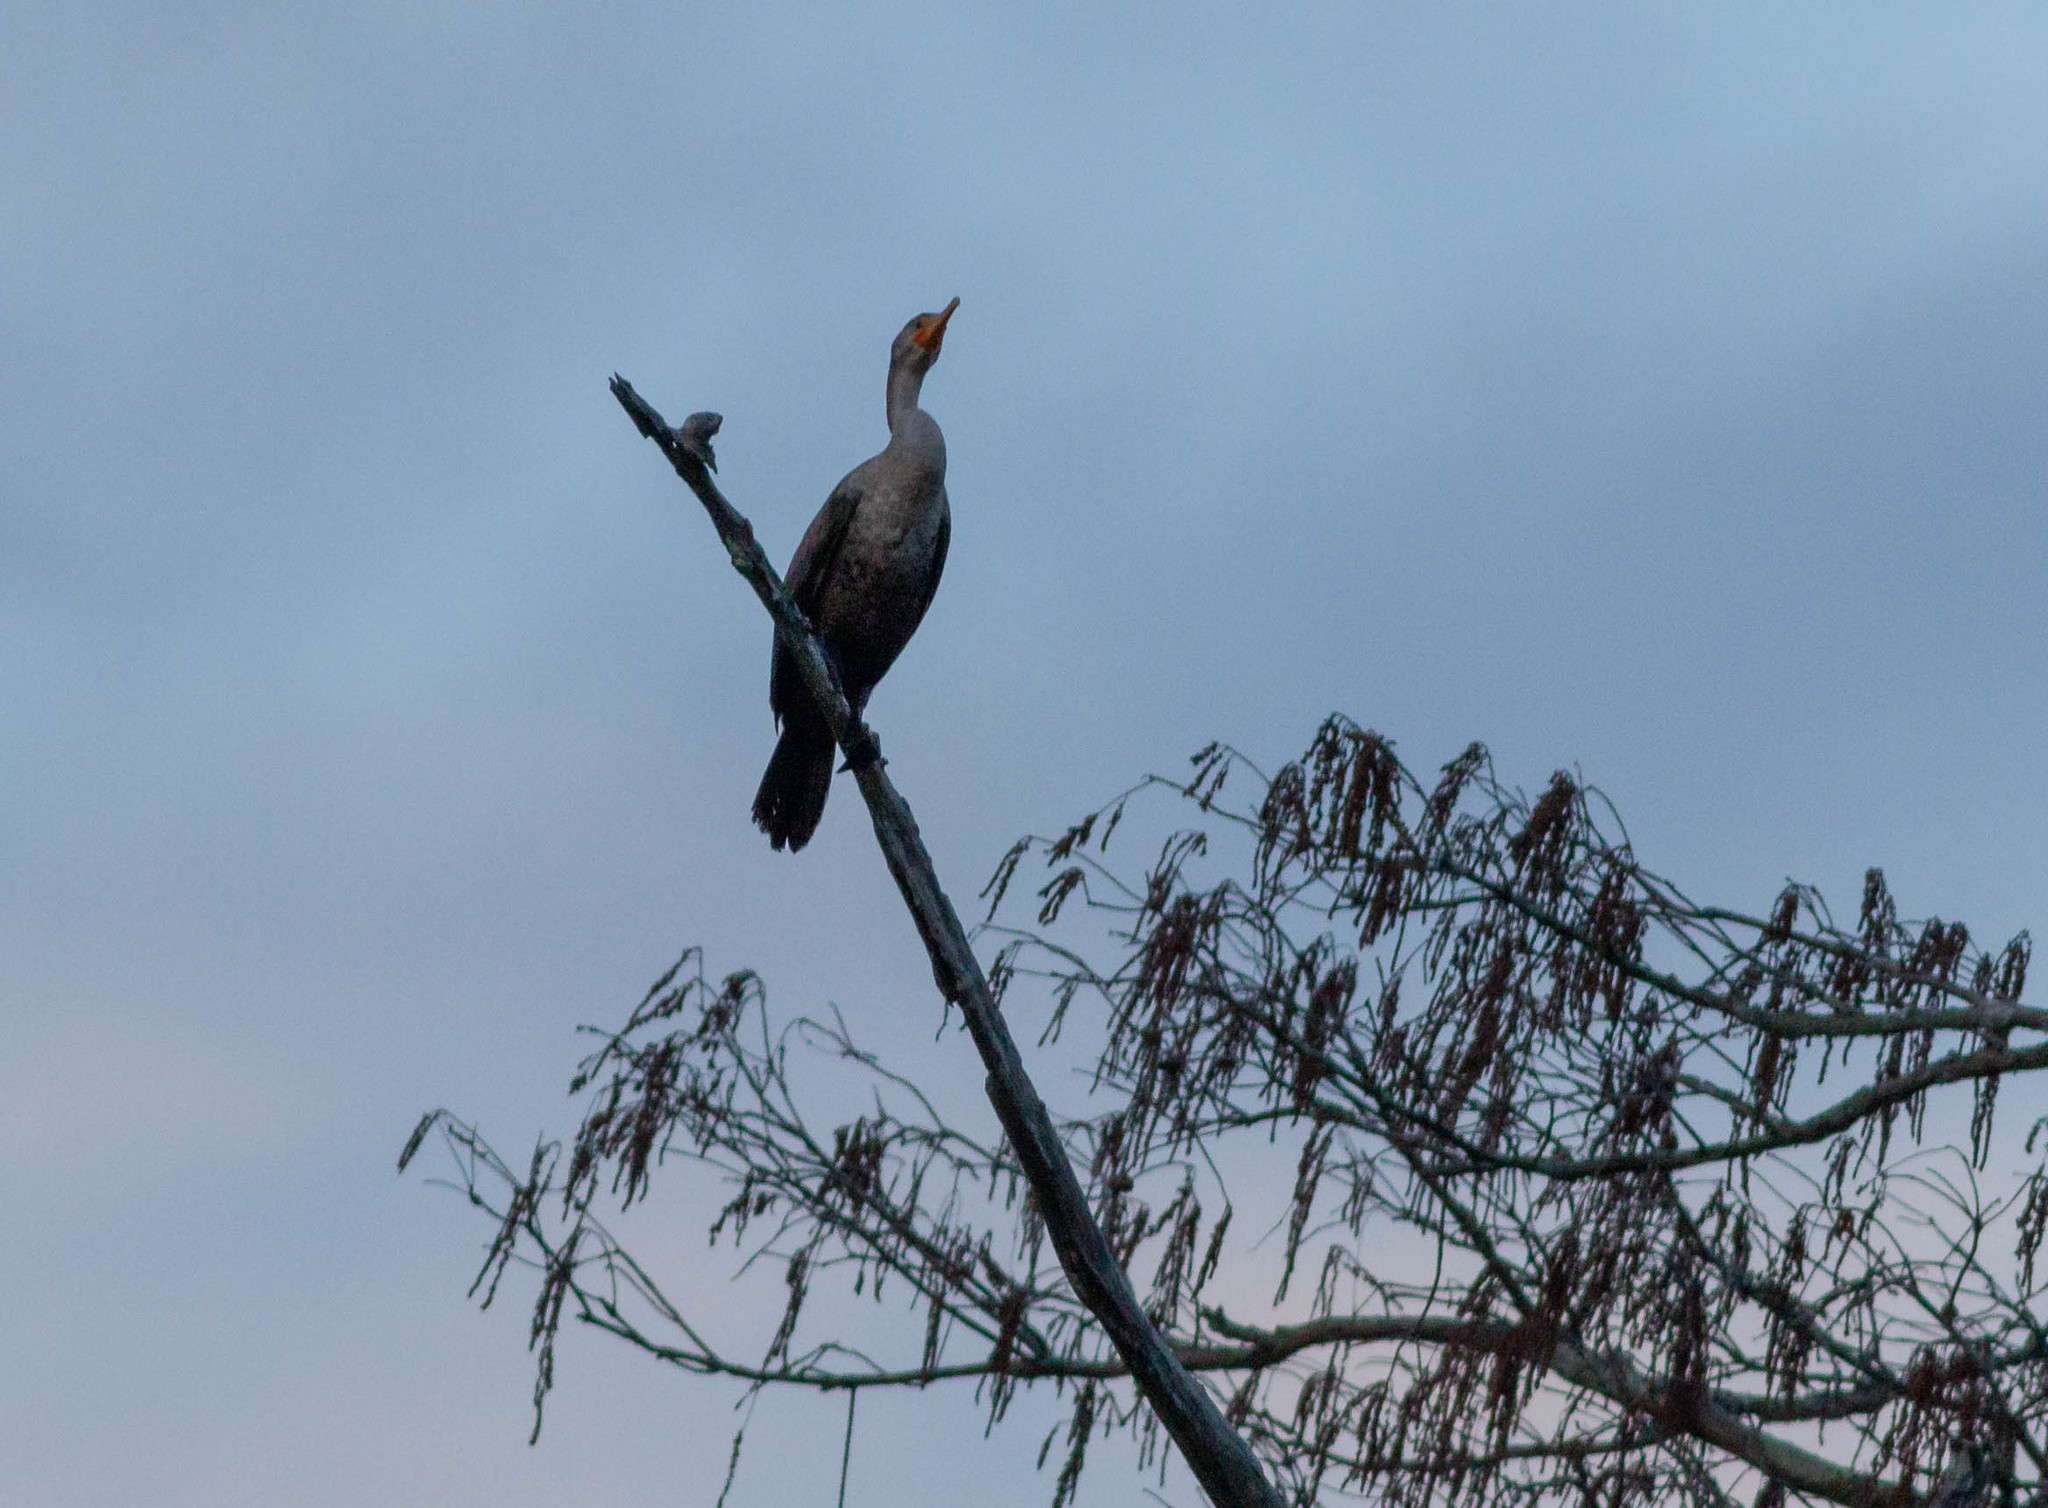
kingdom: Animalia
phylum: Chordata
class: Aves
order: Suliformes
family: Phalacrocoracidae
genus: Phalacrocorax
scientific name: Phalacrocorax auritus
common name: Double-crested cormorant
